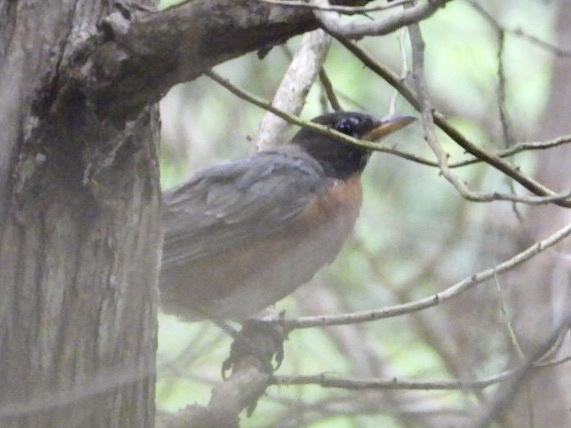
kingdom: Animalia
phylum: Chordata
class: Aves
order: Passeriformes
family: Turdidae
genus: Turdus
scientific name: Turdus migratorius
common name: American robin
